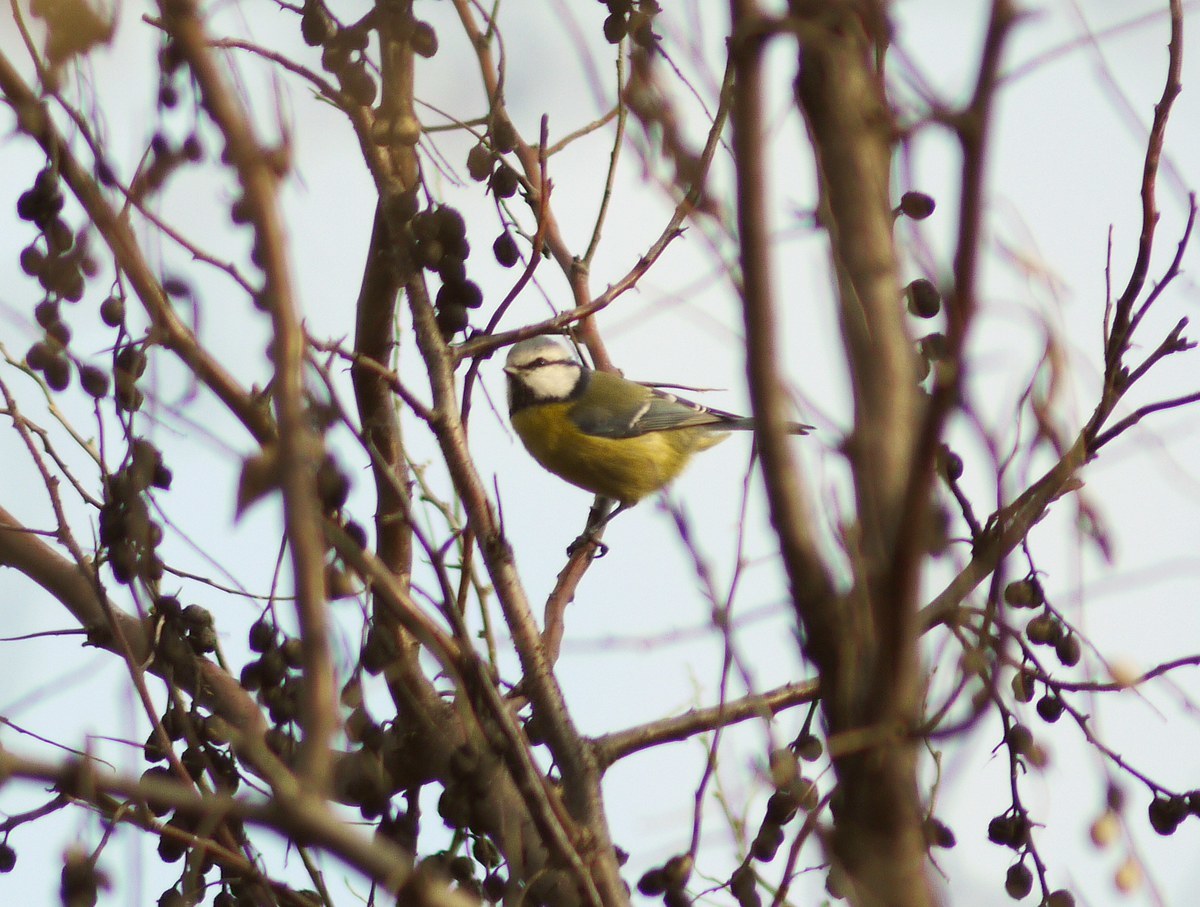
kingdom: Animalia
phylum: Chordata
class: Aves
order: Passeriformes
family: Paridae
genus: Cyanistes
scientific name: Cyanistes caeruleus
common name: Eurasian blue tit
